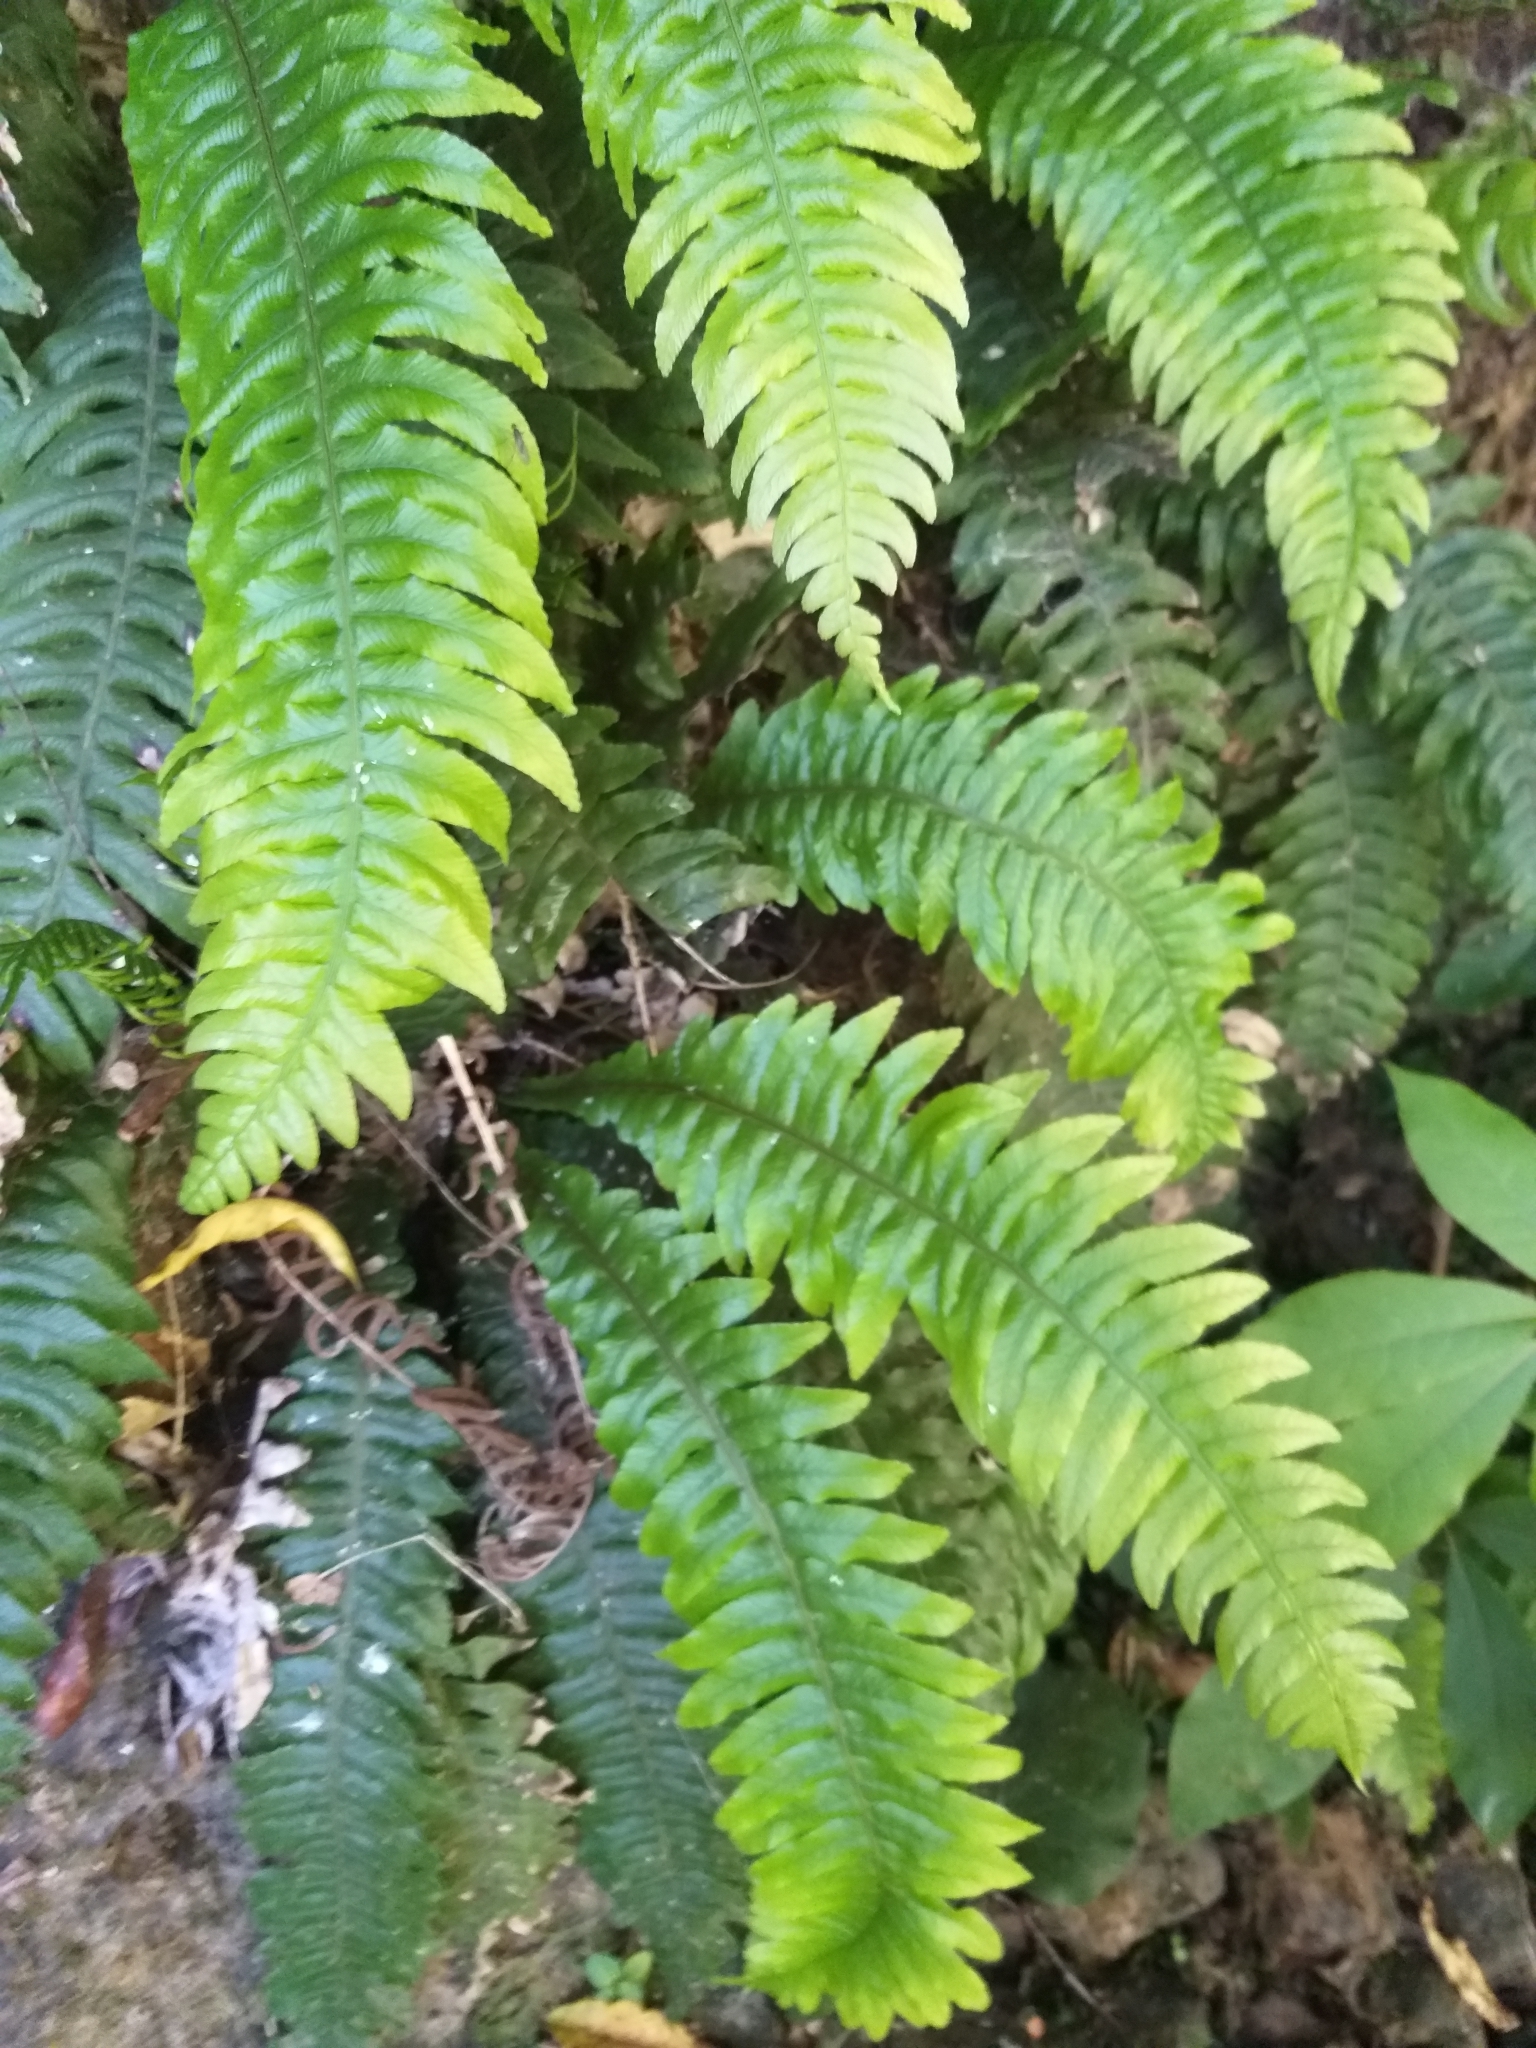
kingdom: Plantae
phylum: Tracheophyta
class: Polypodiopsida
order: Polypodiales
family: Blechnaceae
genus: Austroblechnum
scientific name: Austroblechnum lanceolatum
